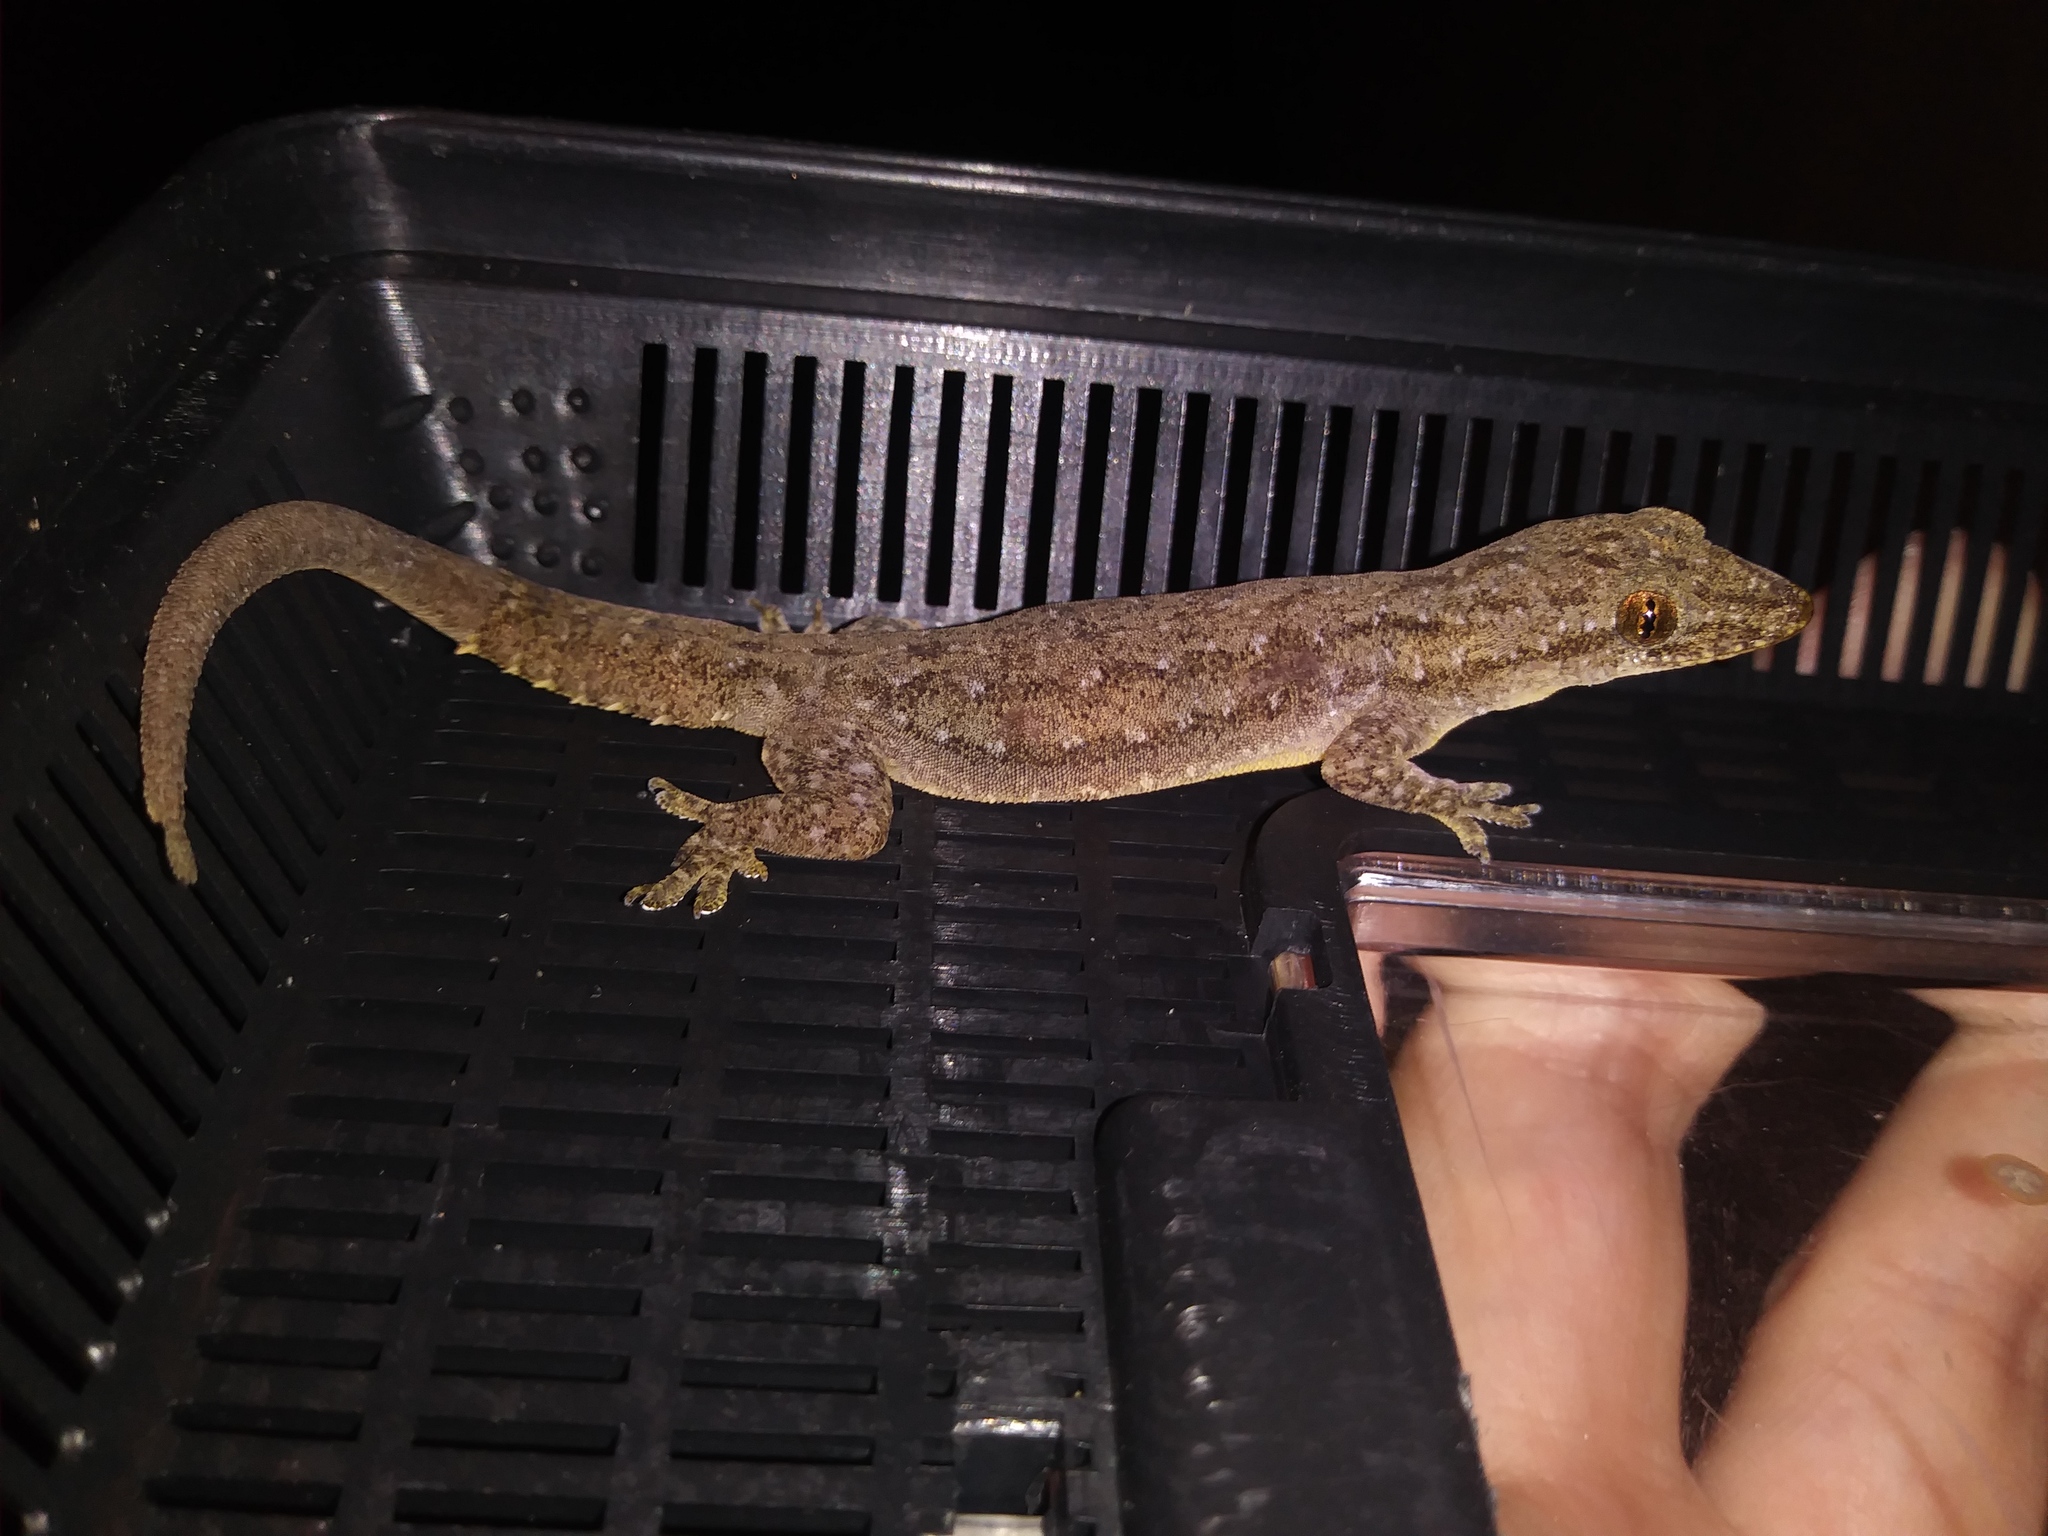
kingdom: Animalia
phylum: Chordata
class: Squamata
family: Gekkonidae
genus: Hemidactylus
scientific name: Hemidactylus garnotii
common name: Indo-pacific gecko
